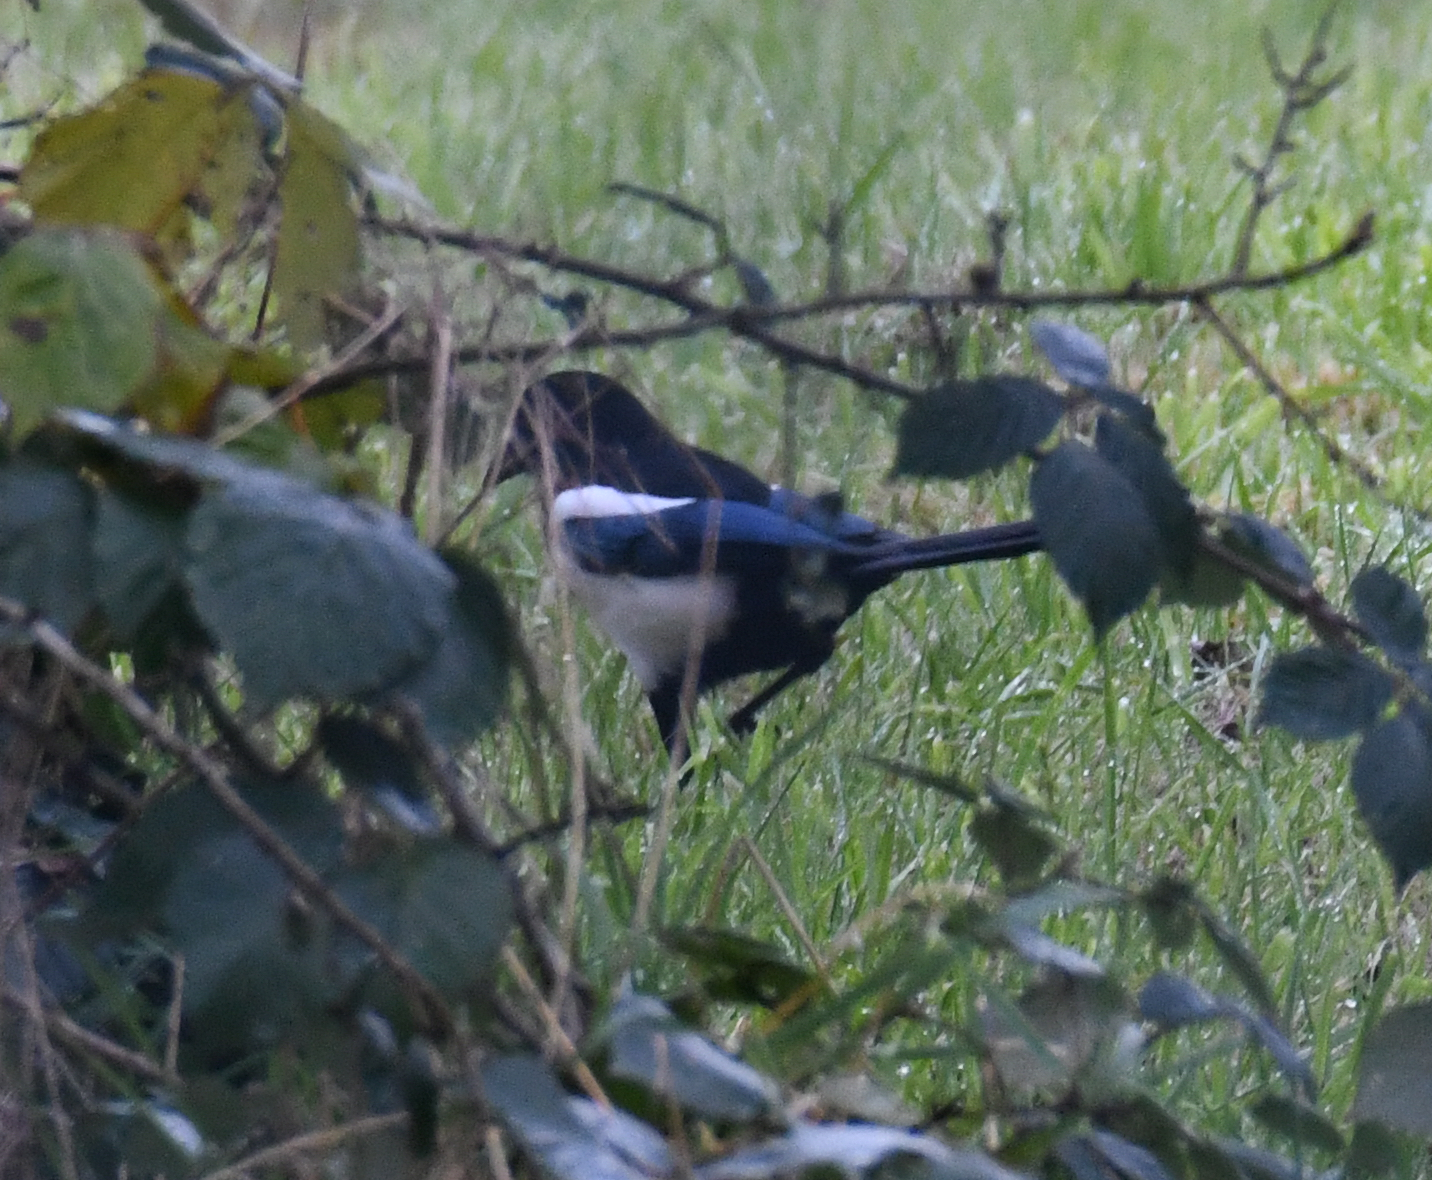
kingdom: Animalia
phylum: Chordata
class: Aves
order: Passeriformes
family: Corvidae
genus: Pica
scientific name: Pica pica
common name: Eurasian magpie
